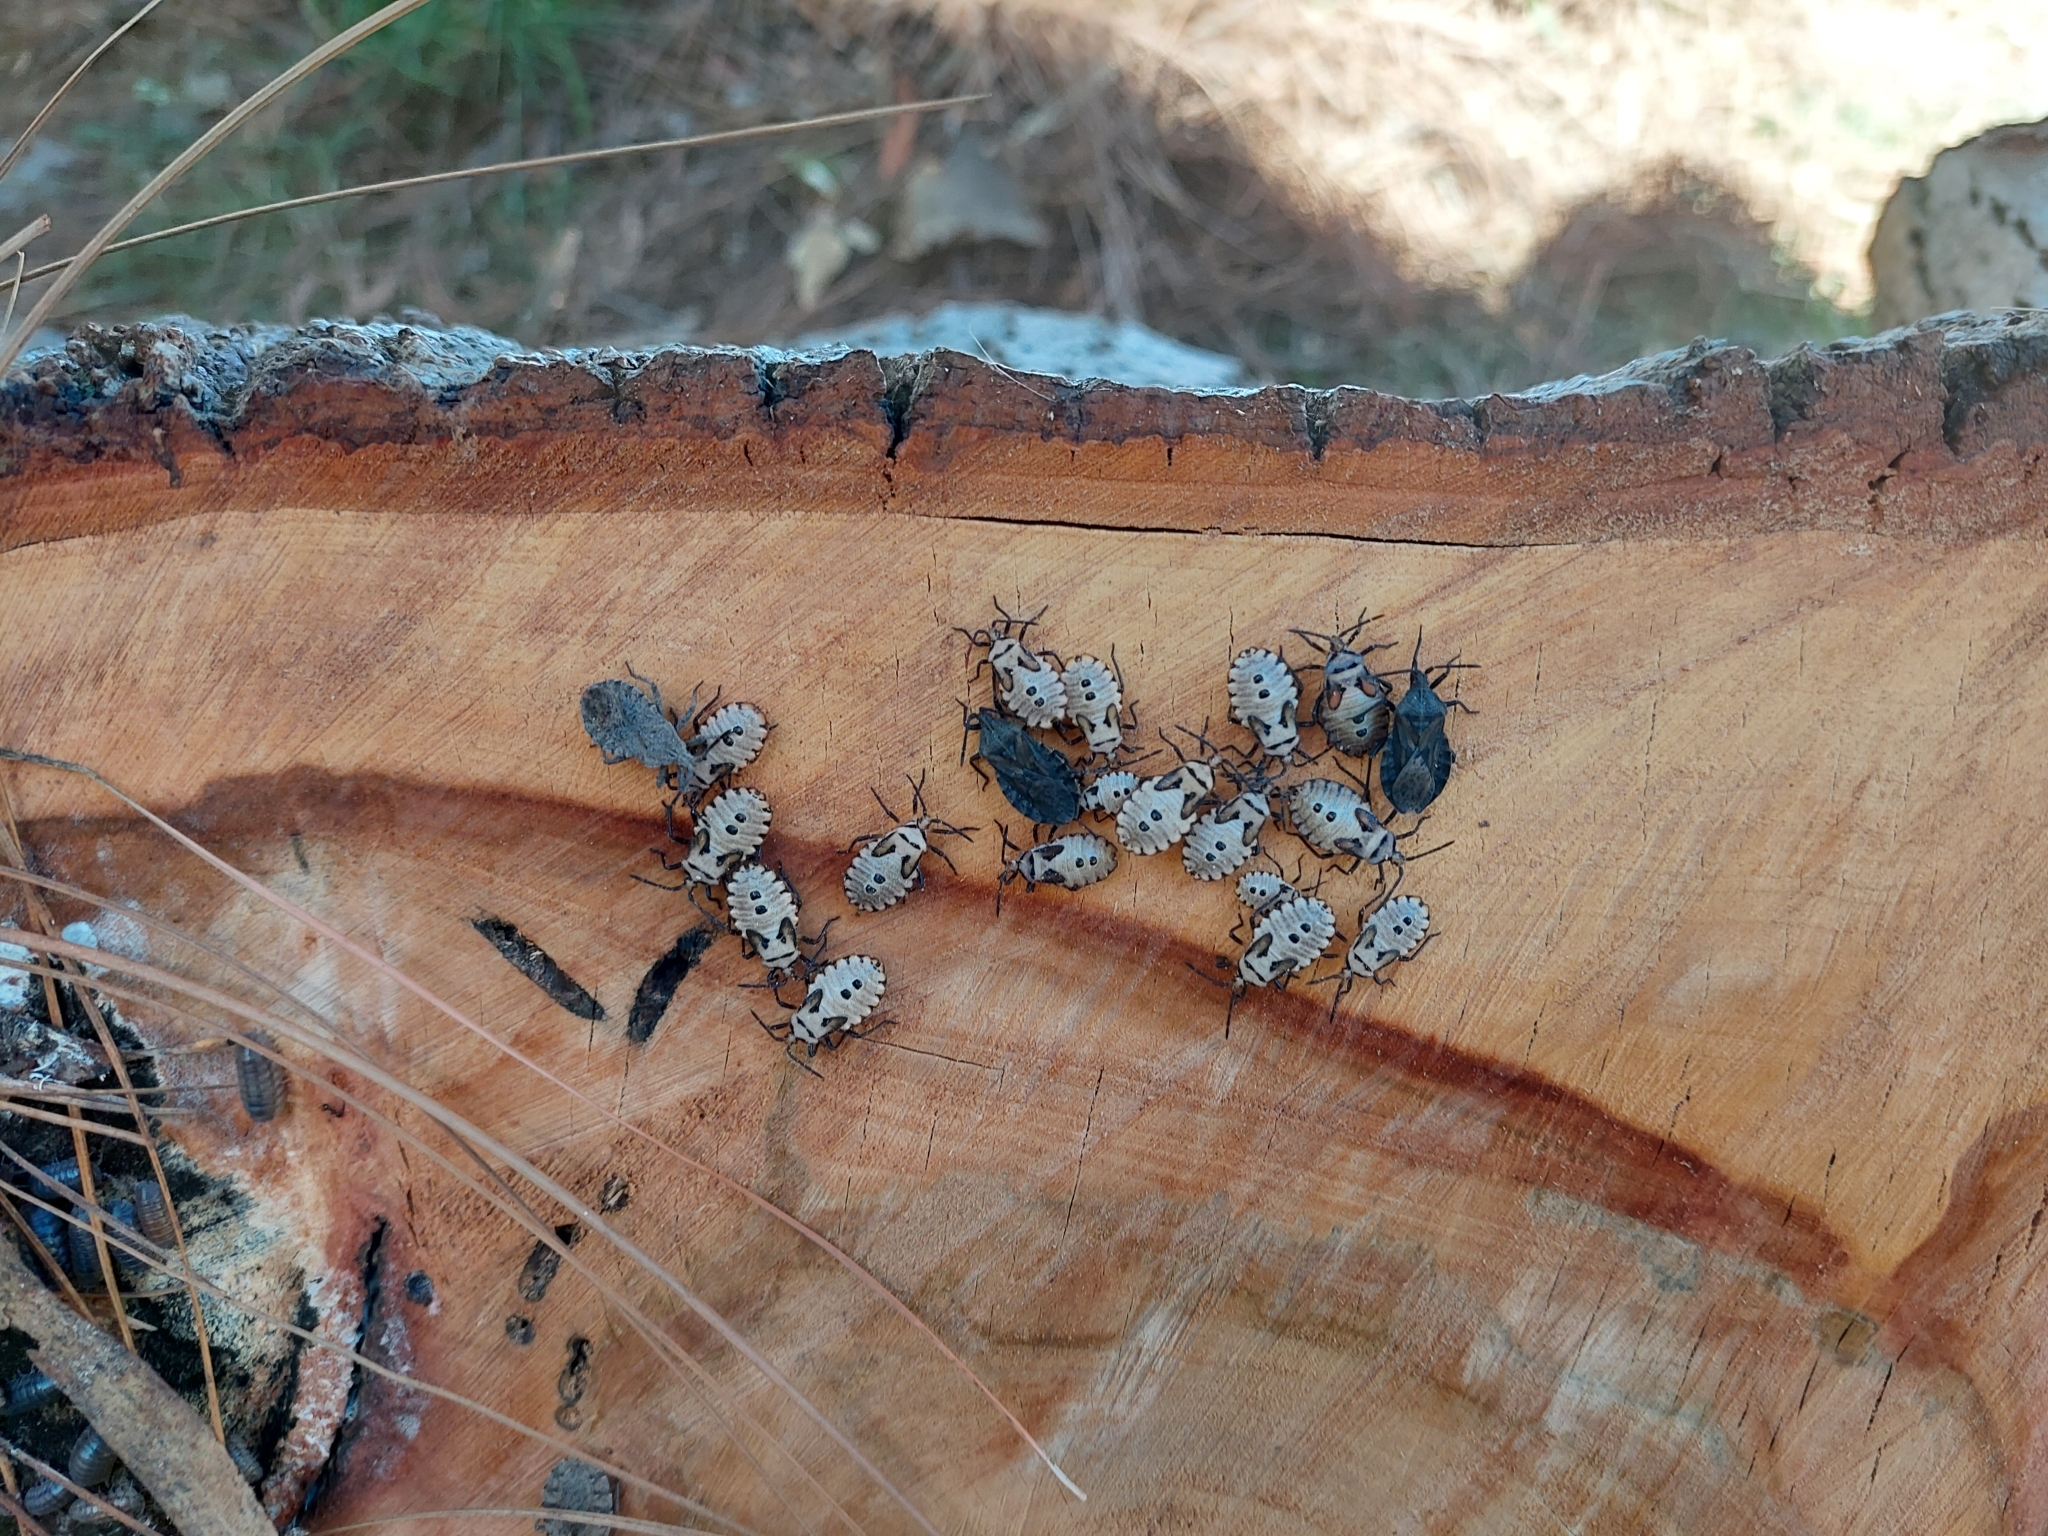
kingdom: Animalia
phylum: Arthropoda
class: Insecta
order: Hemiptera
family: Coreidae
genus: Spartocera
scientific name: Spartocera brevicornis
